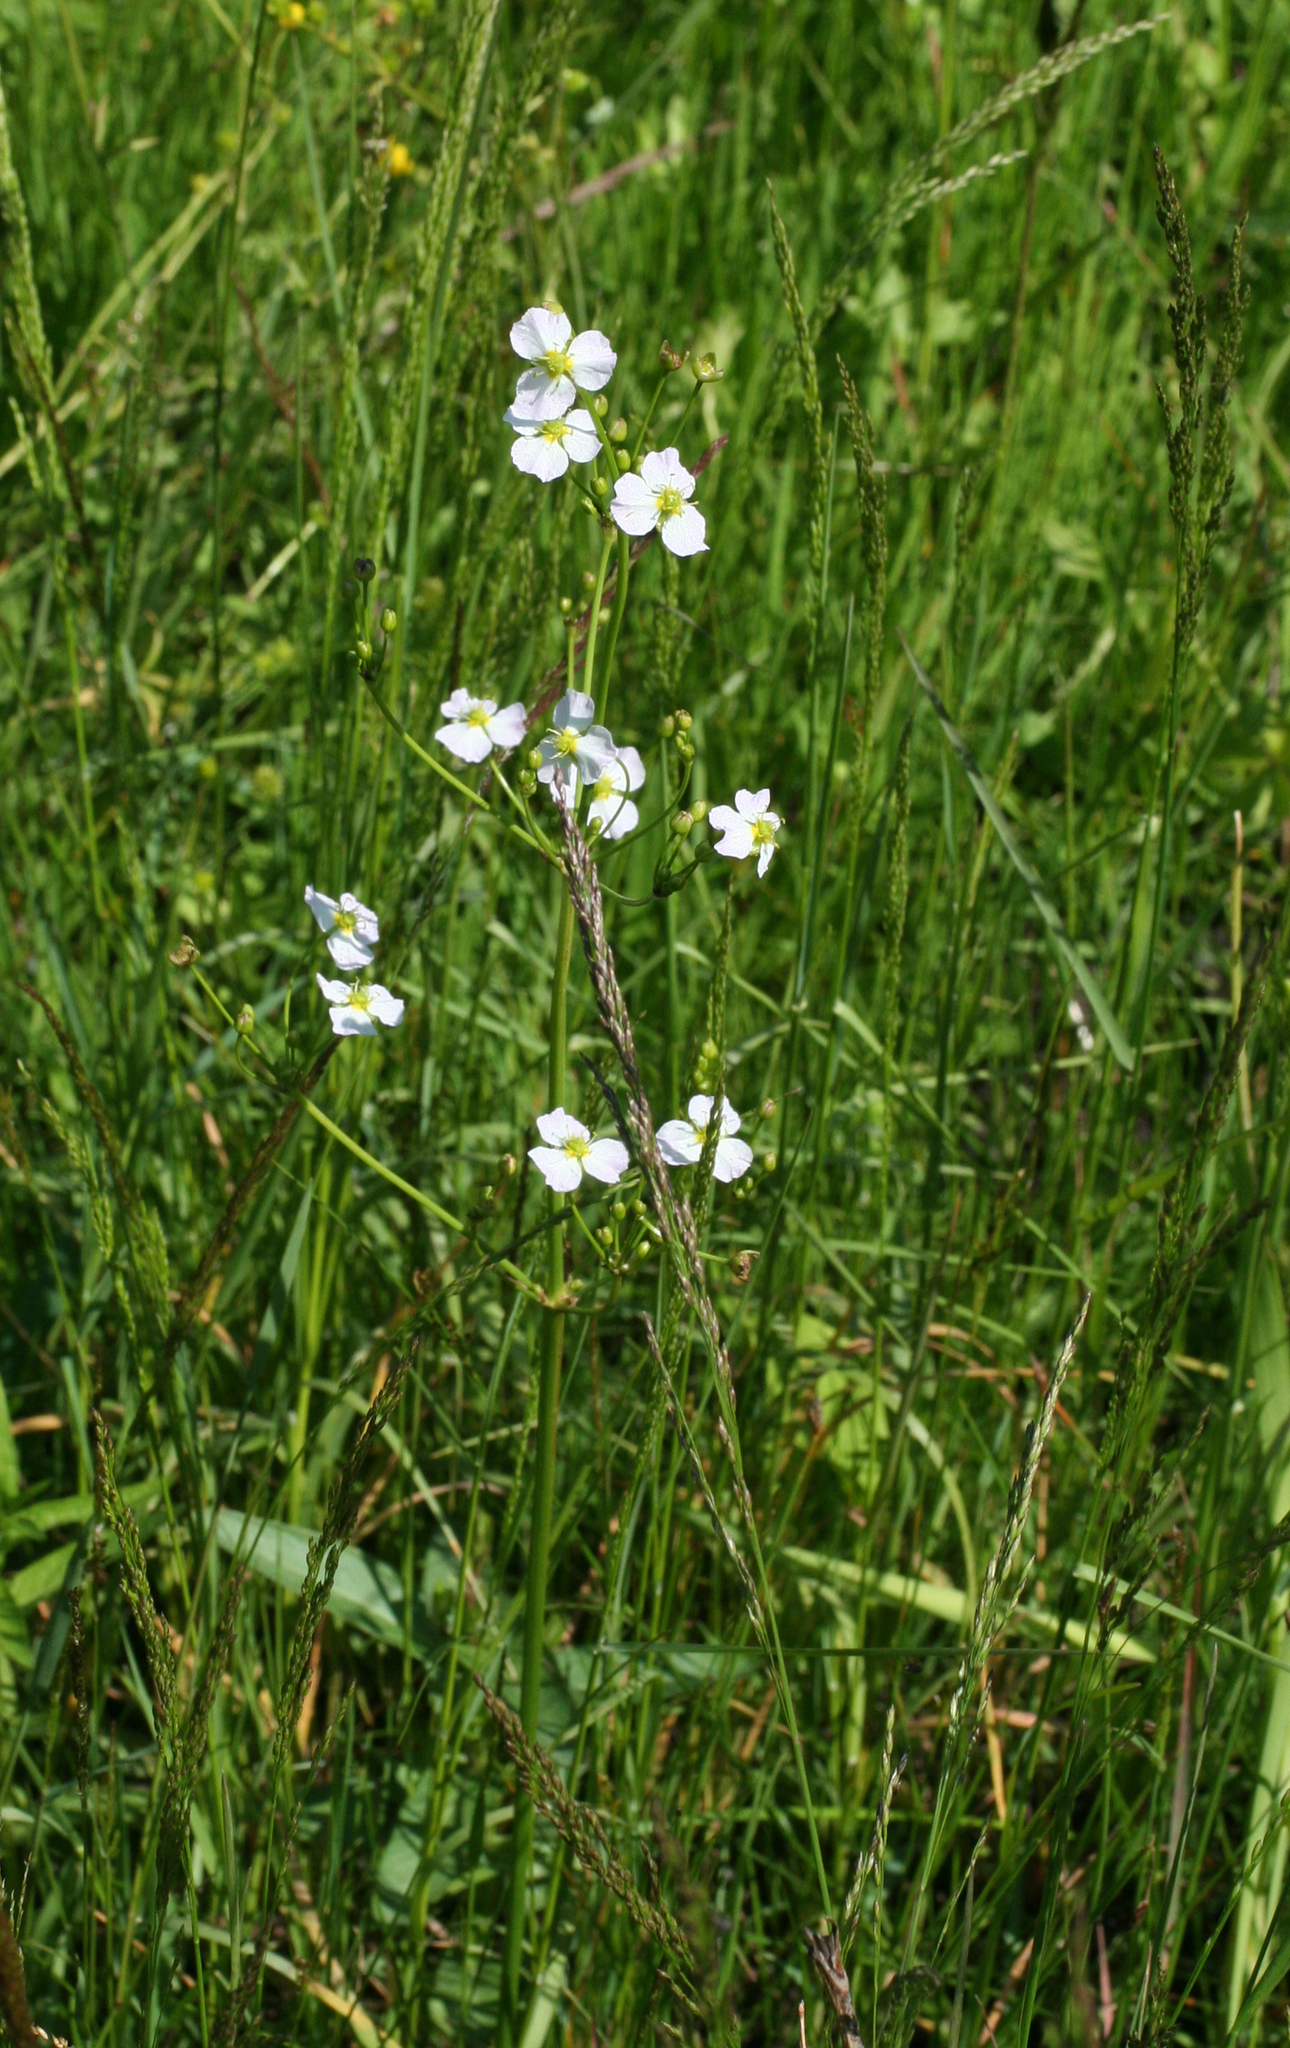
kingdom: Plantae
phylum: Tracheophyta
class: Liliopsida
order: Alismatales
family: Alismataceae
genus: Alisma
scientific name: Alisma plantago-aquatica
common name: Water-plantain
